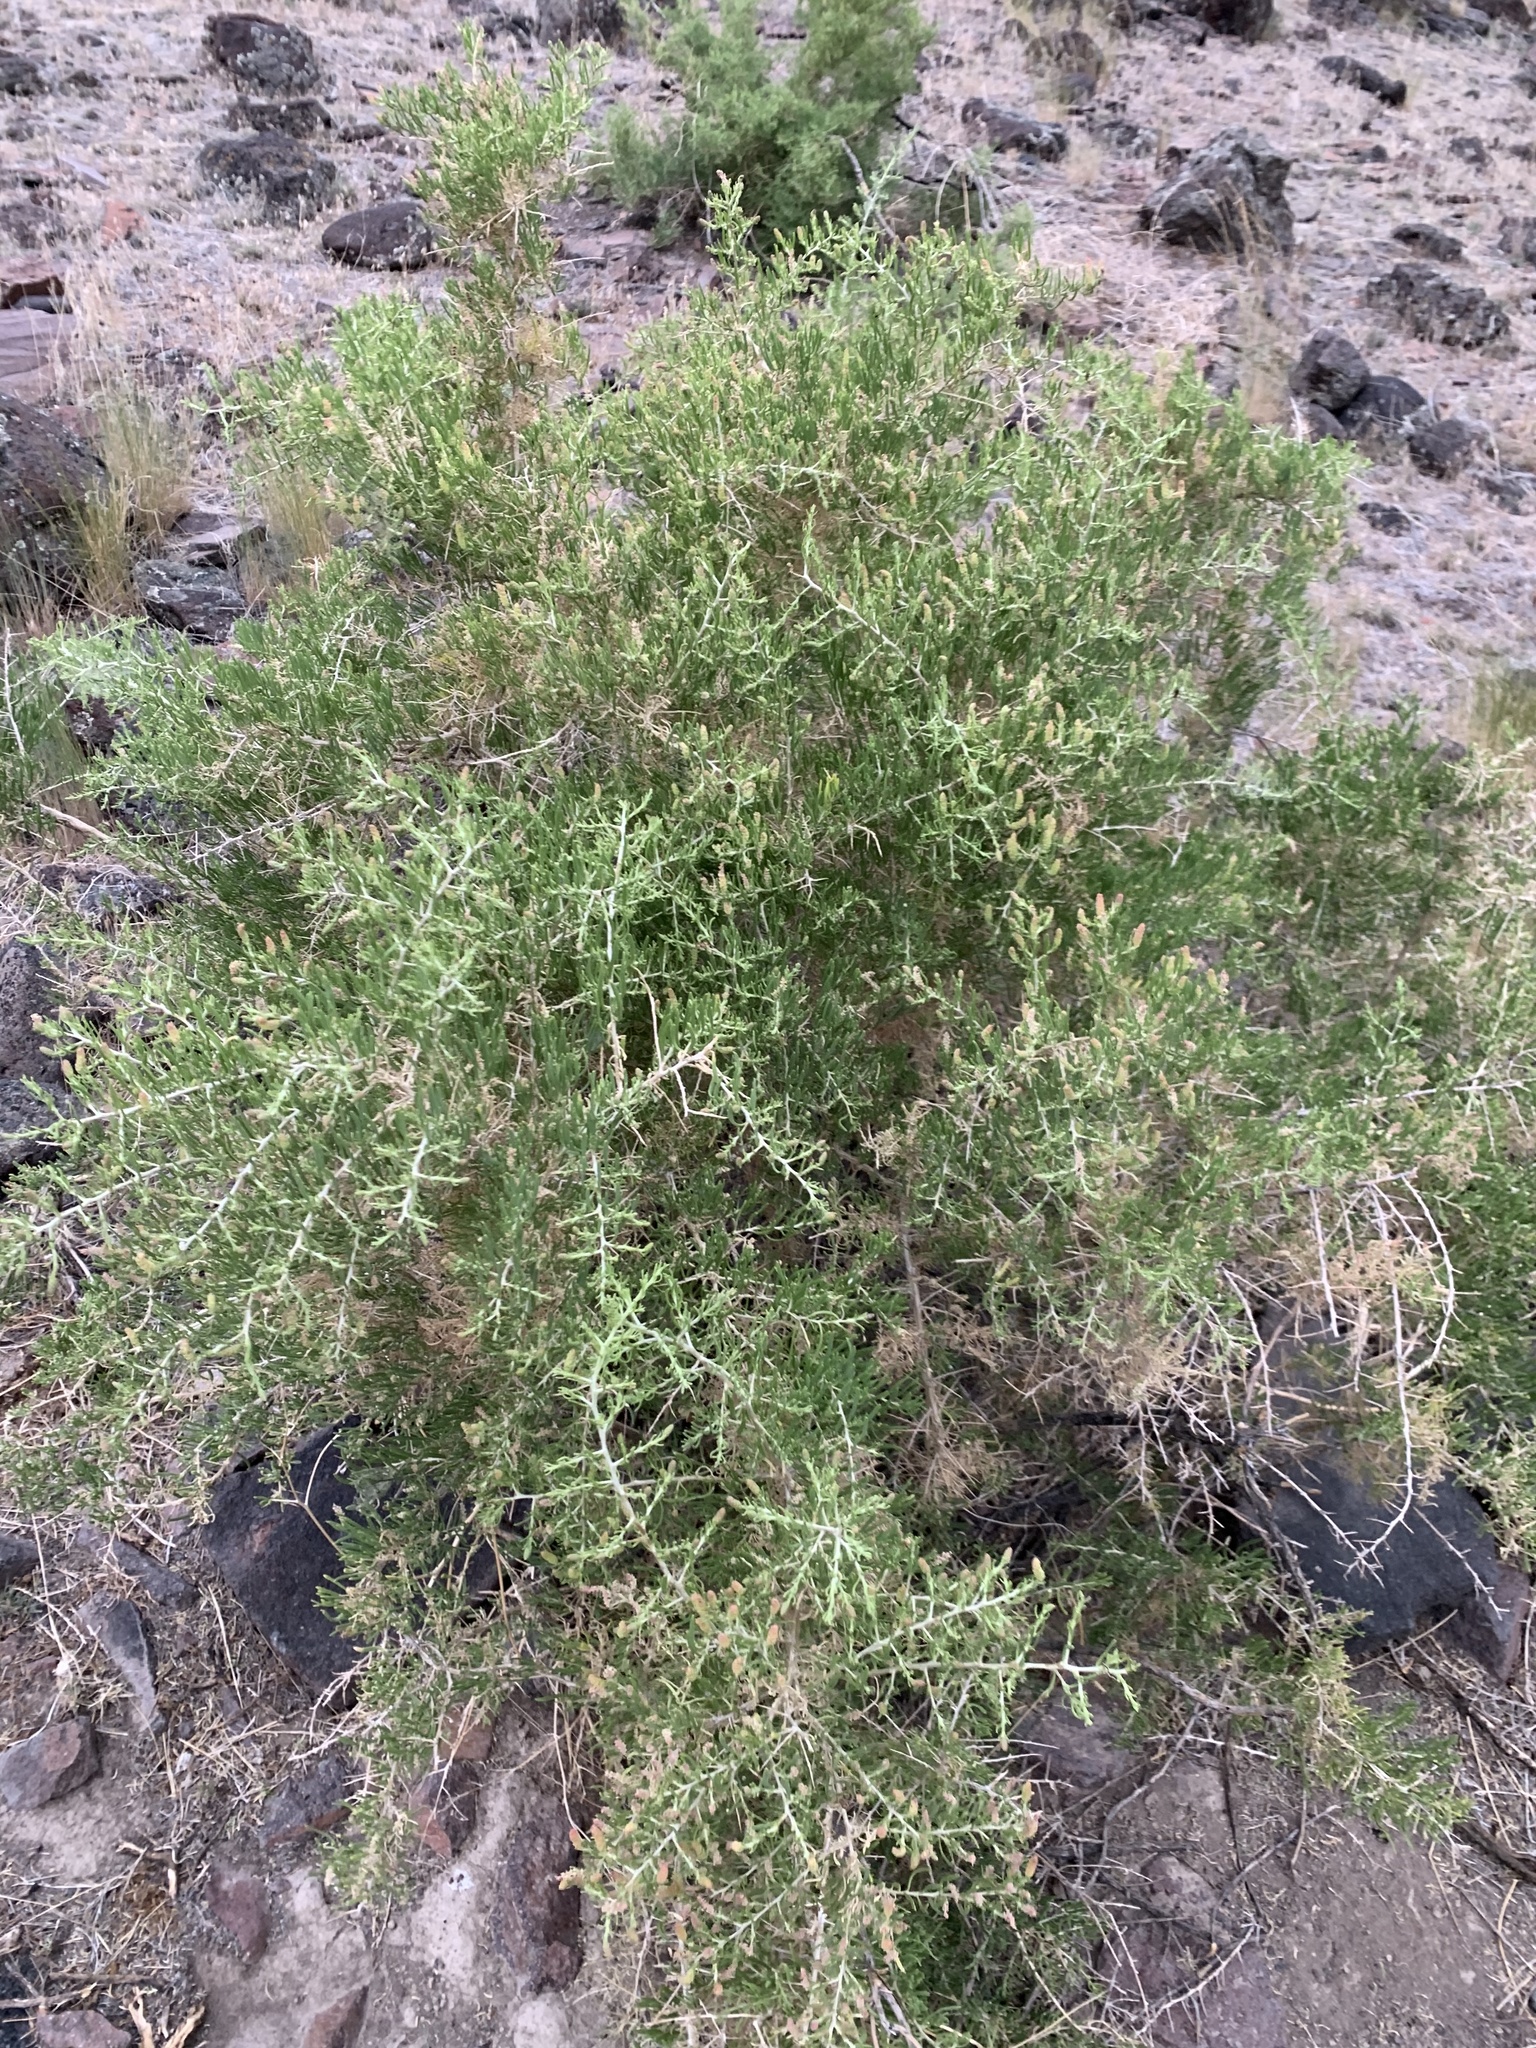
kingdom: Plantae
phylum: Tracheophyta
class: Magnoliopsida
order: Caryophyllales
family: Sarcobataceae
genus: Sarcobatus
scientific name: Sarcobatus vermiculatus
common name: Greasewood
